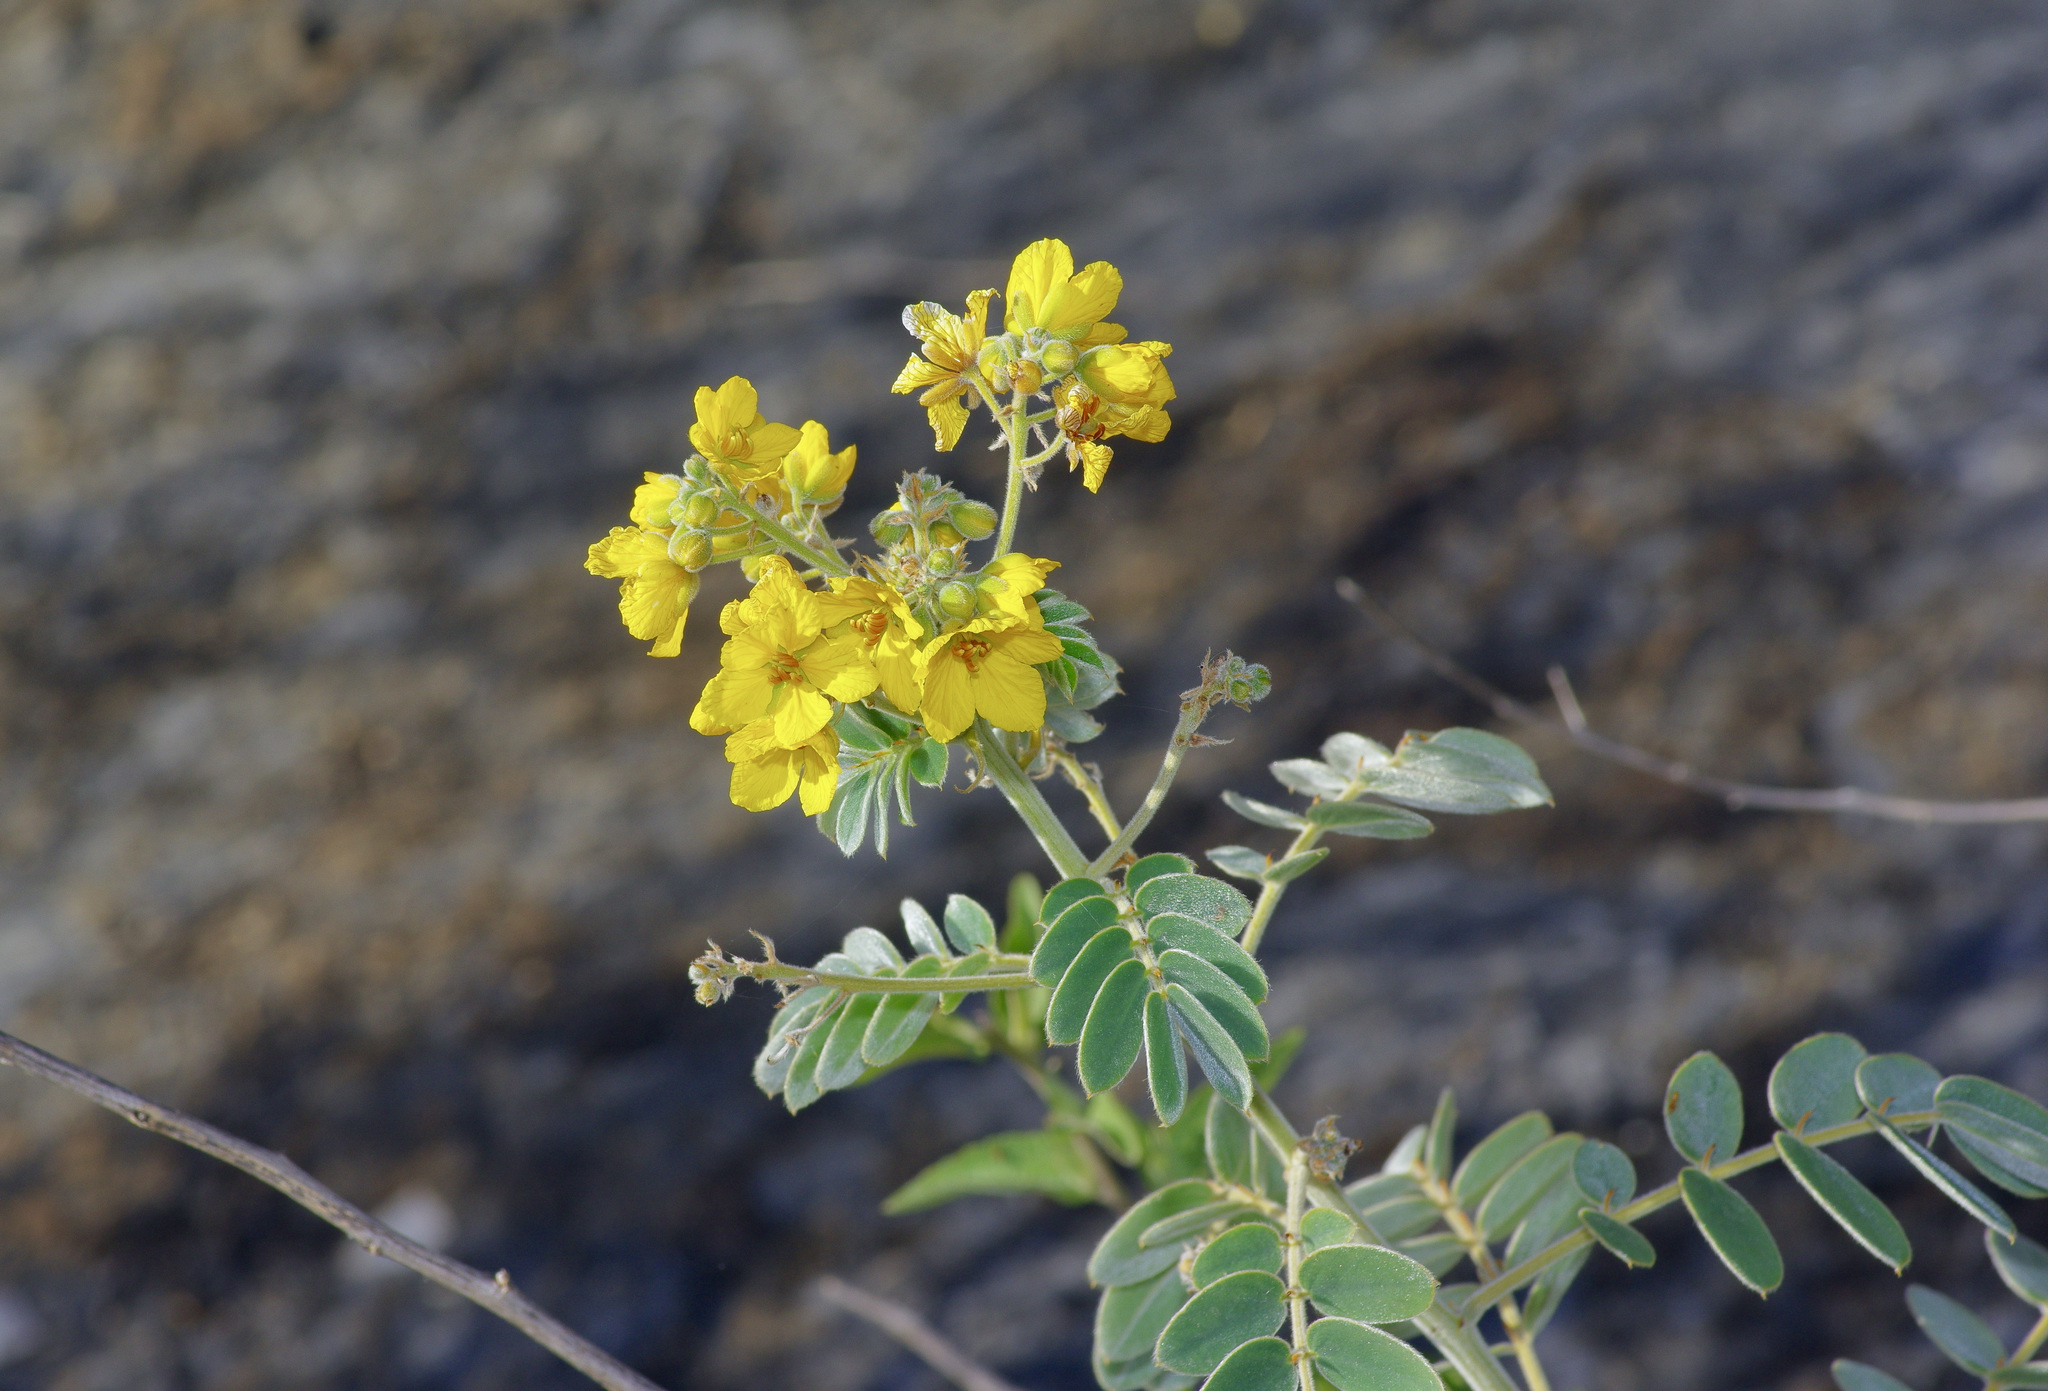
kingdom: Plantae
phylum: Tracheophyta
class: Magnoliopsida
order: Fabales
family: Fabaceae
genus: Senna
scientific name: Senna lindheimeriana
